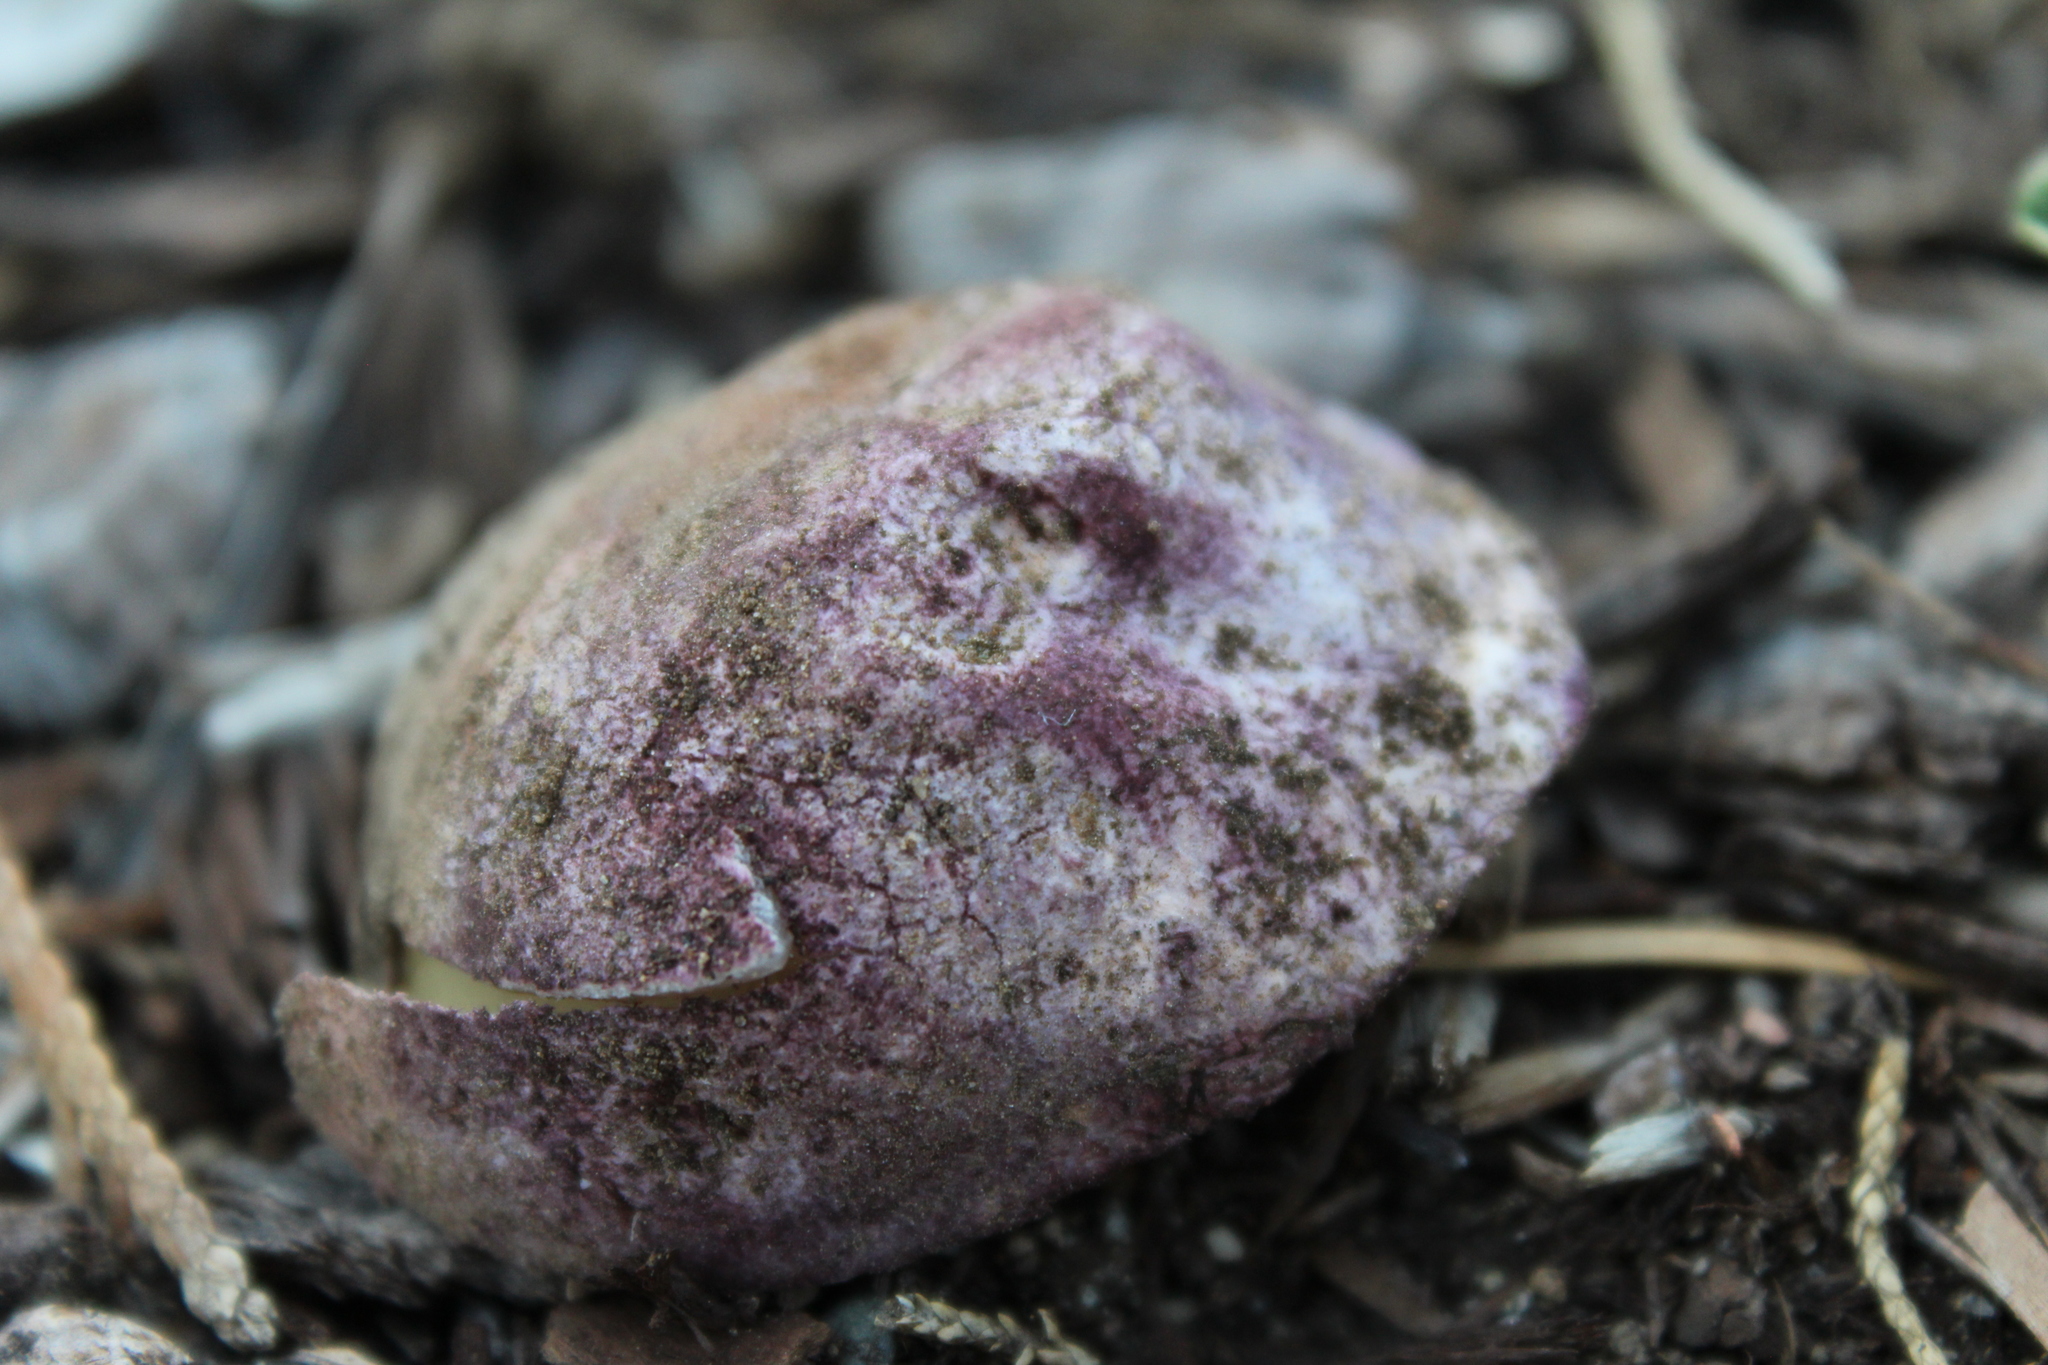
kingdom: Fungi
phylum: Basidiomycota
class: Agaricomycetes
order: Phallales
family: Phallaceae
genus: Phallus
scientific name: Phallus hadriani
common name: Sand stinkhorn
